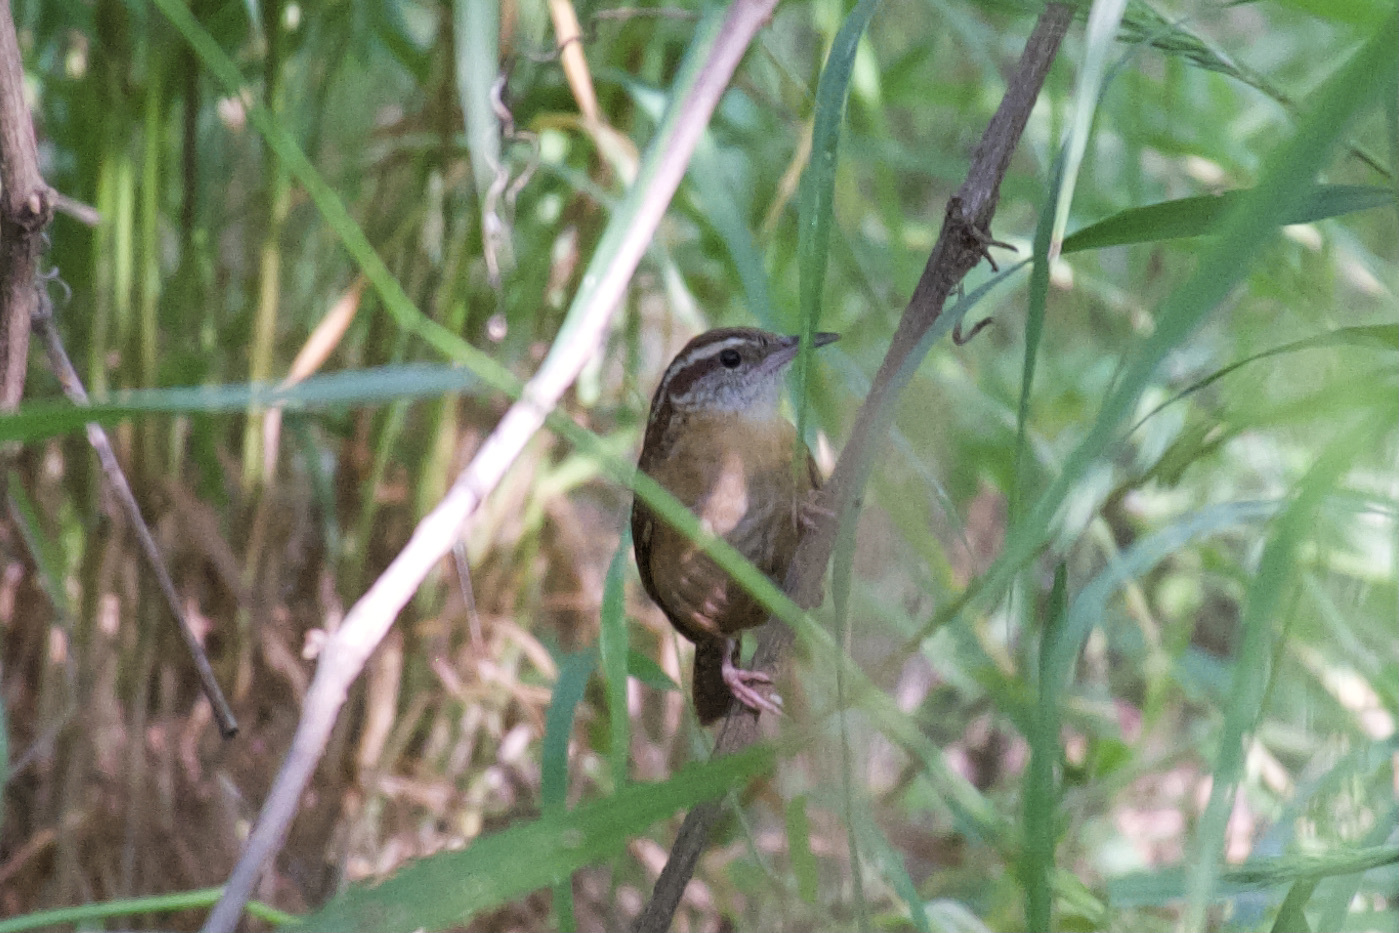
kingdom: Animalia
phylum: Chordata
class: Aves
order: Passeriformes
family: Troglodytidae
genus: Thryothorus
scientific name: Thryothorus ludovicianus
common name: Carolina wren
